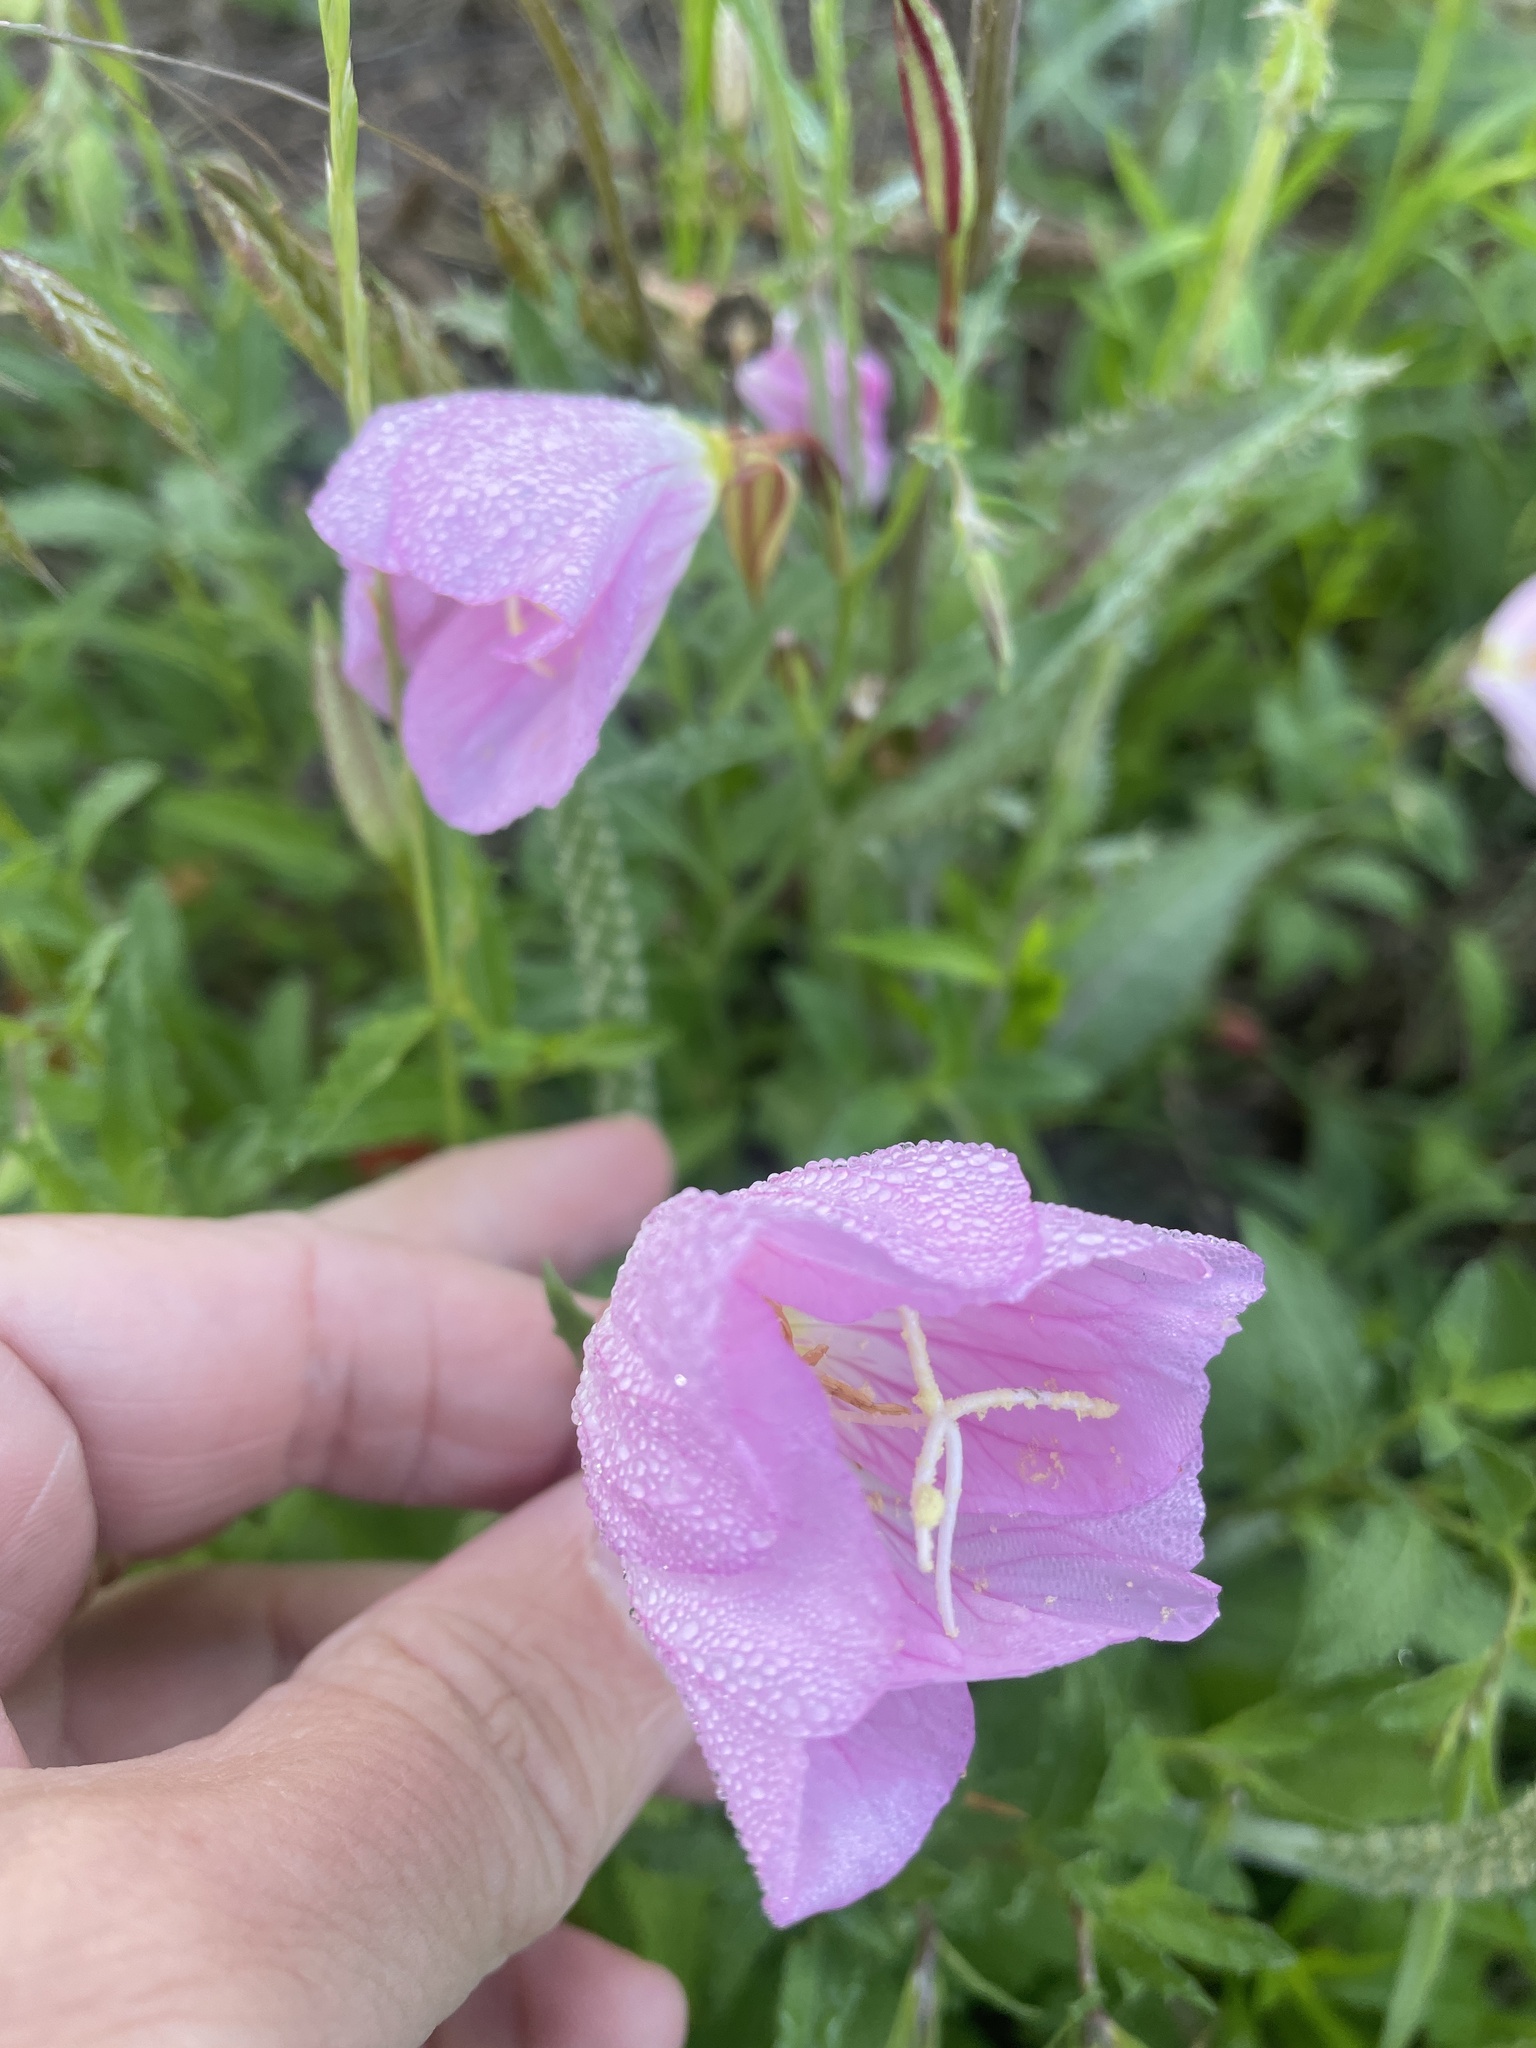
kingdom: Plantae
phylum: Tracheophyta
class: Magnoliopsida
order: Myrtales
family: Onagraceae
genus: Oenothera
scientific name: Oenothera speciosa
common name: White evening-primrose
